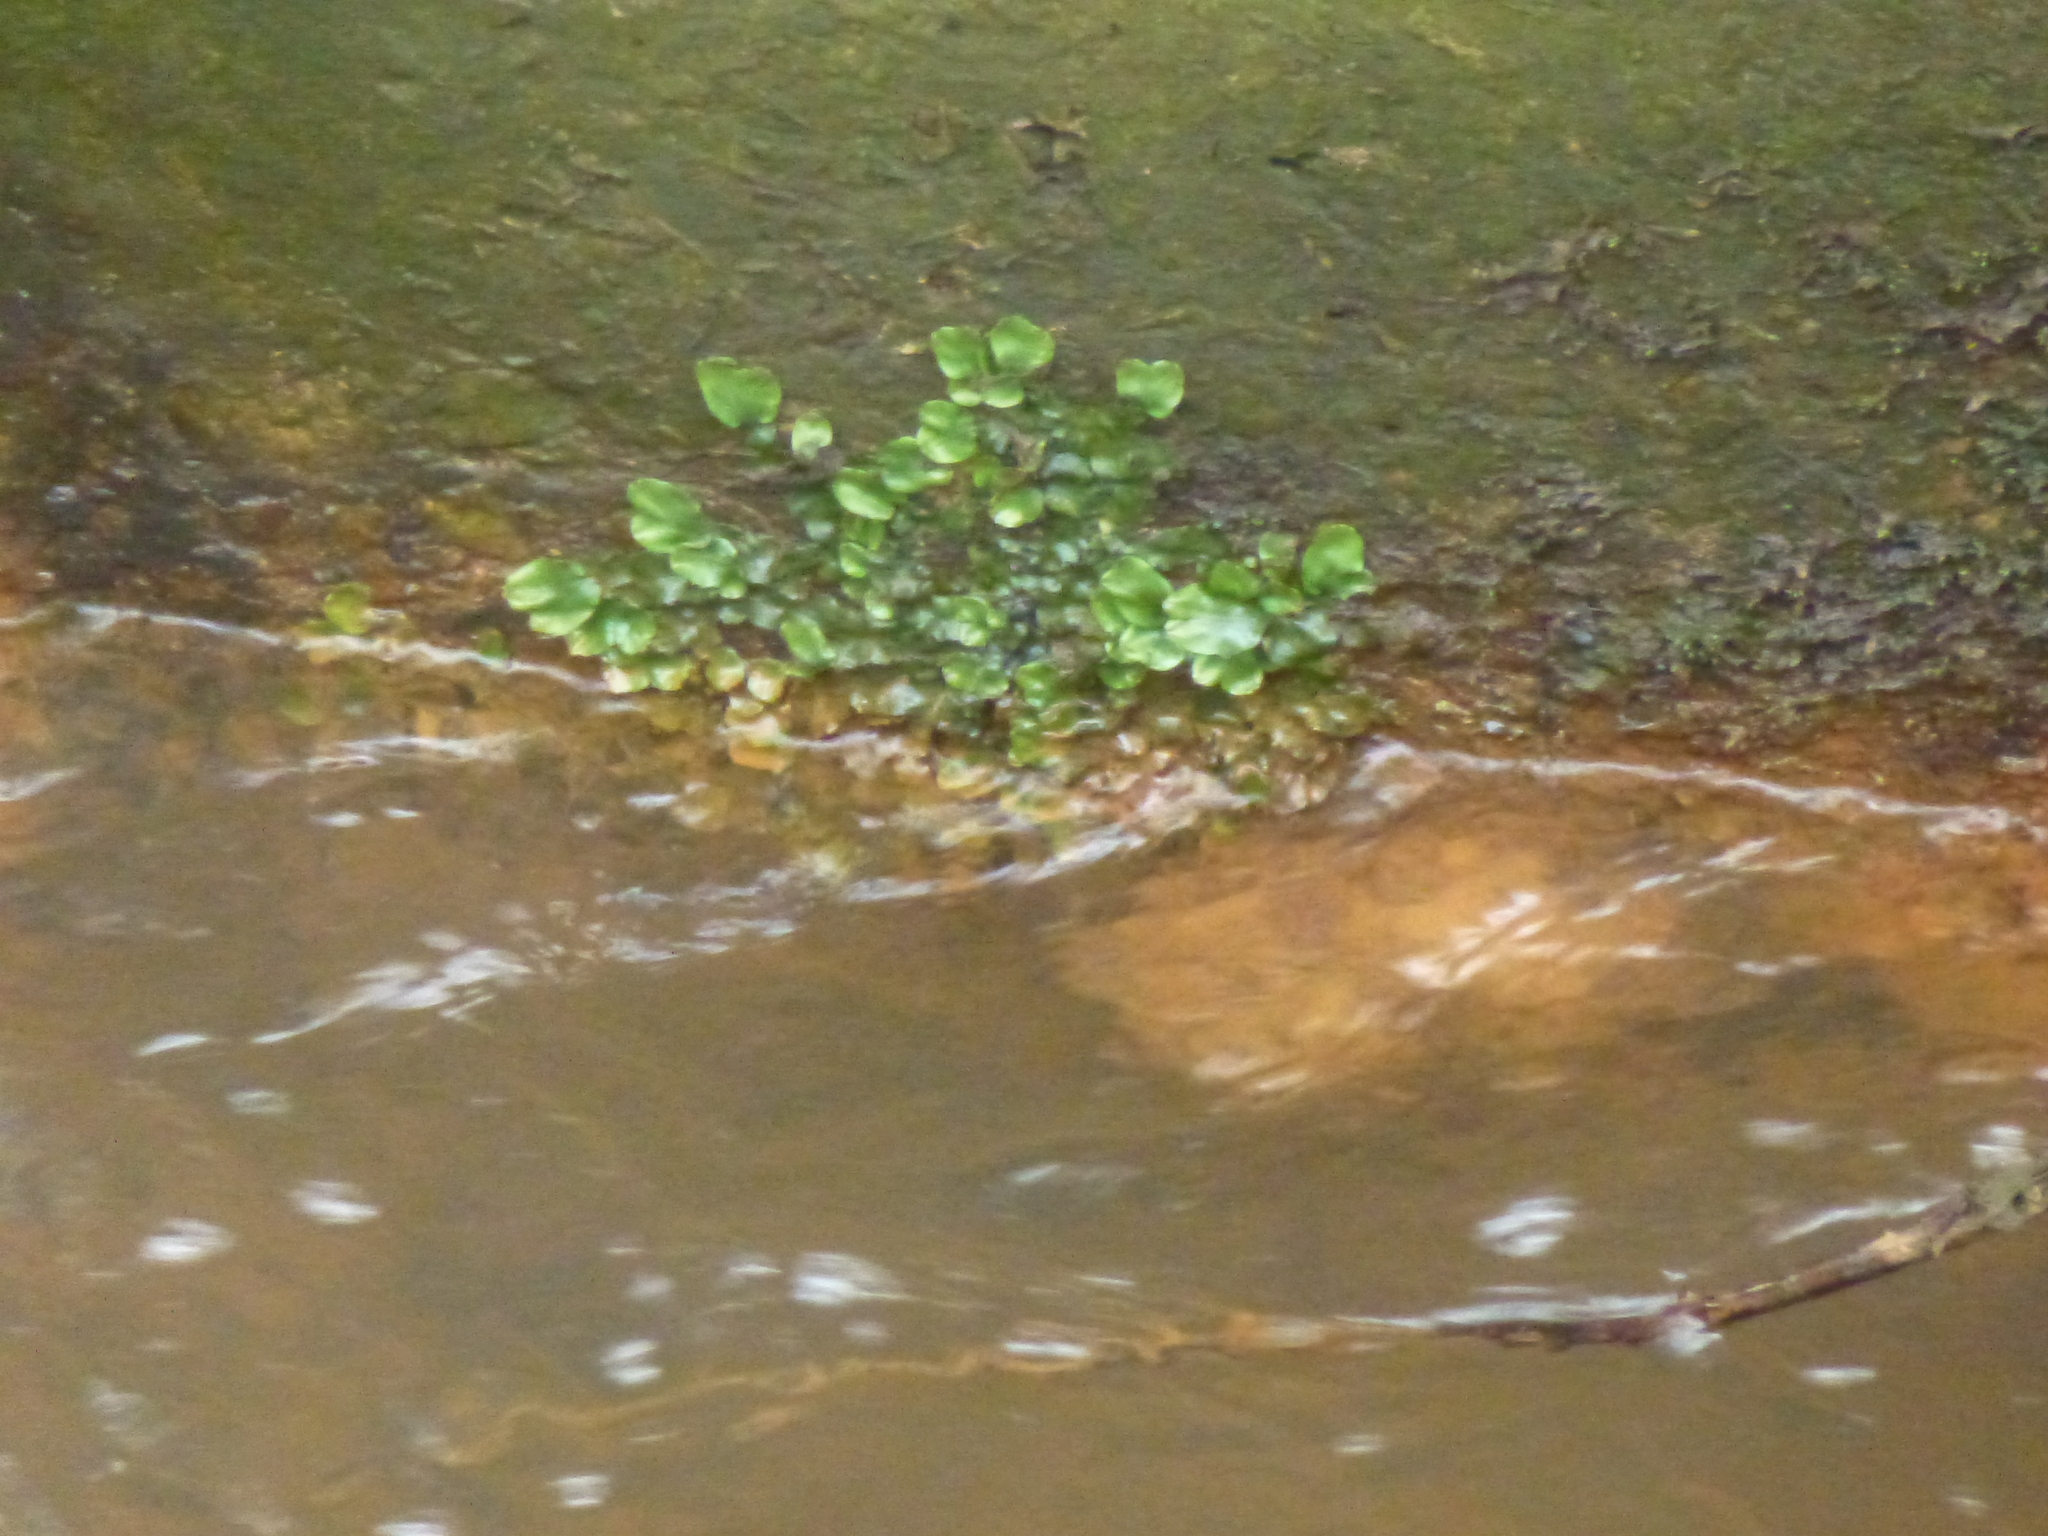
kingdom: Plantae
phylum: Marchantiophyta
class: Marchantiopsida
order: Marchantiales
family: Conocephalaceae
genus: Conocephalum
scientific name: Conocephalum conicum
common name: Great scented liverwort
